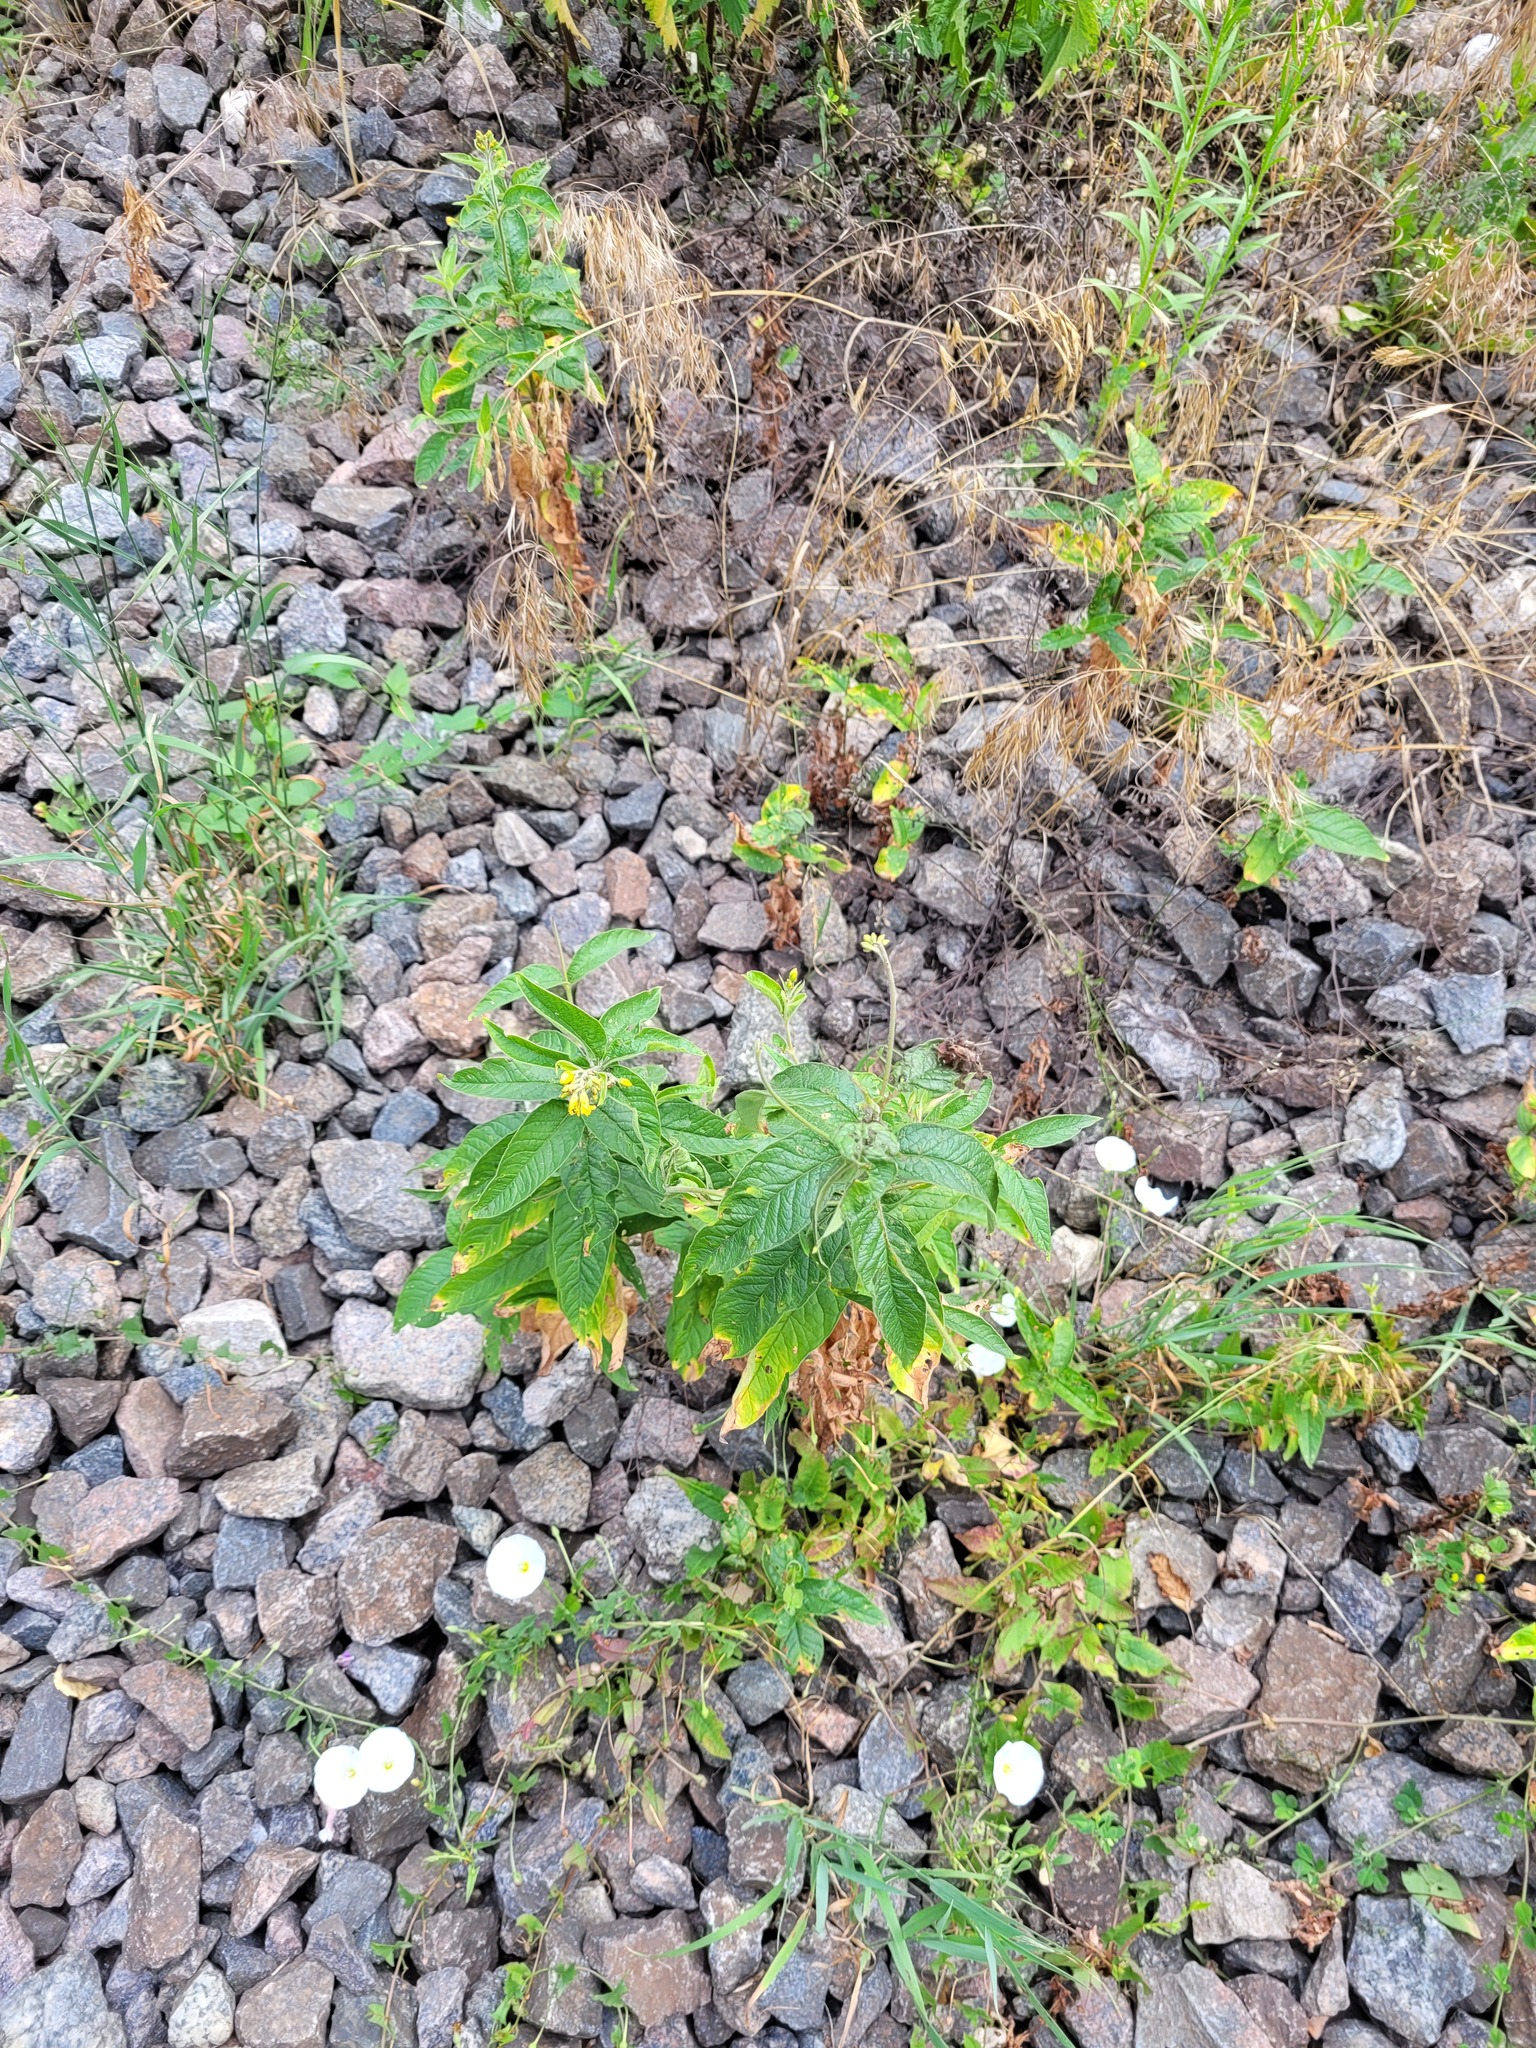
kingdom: Plantae
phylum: Tracheophyta
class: Magnoliopsida
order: Ericales
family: Primulaceae
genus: Lysimachia
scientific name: Lysimachia vulgaris
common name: Yellow loosestrife
